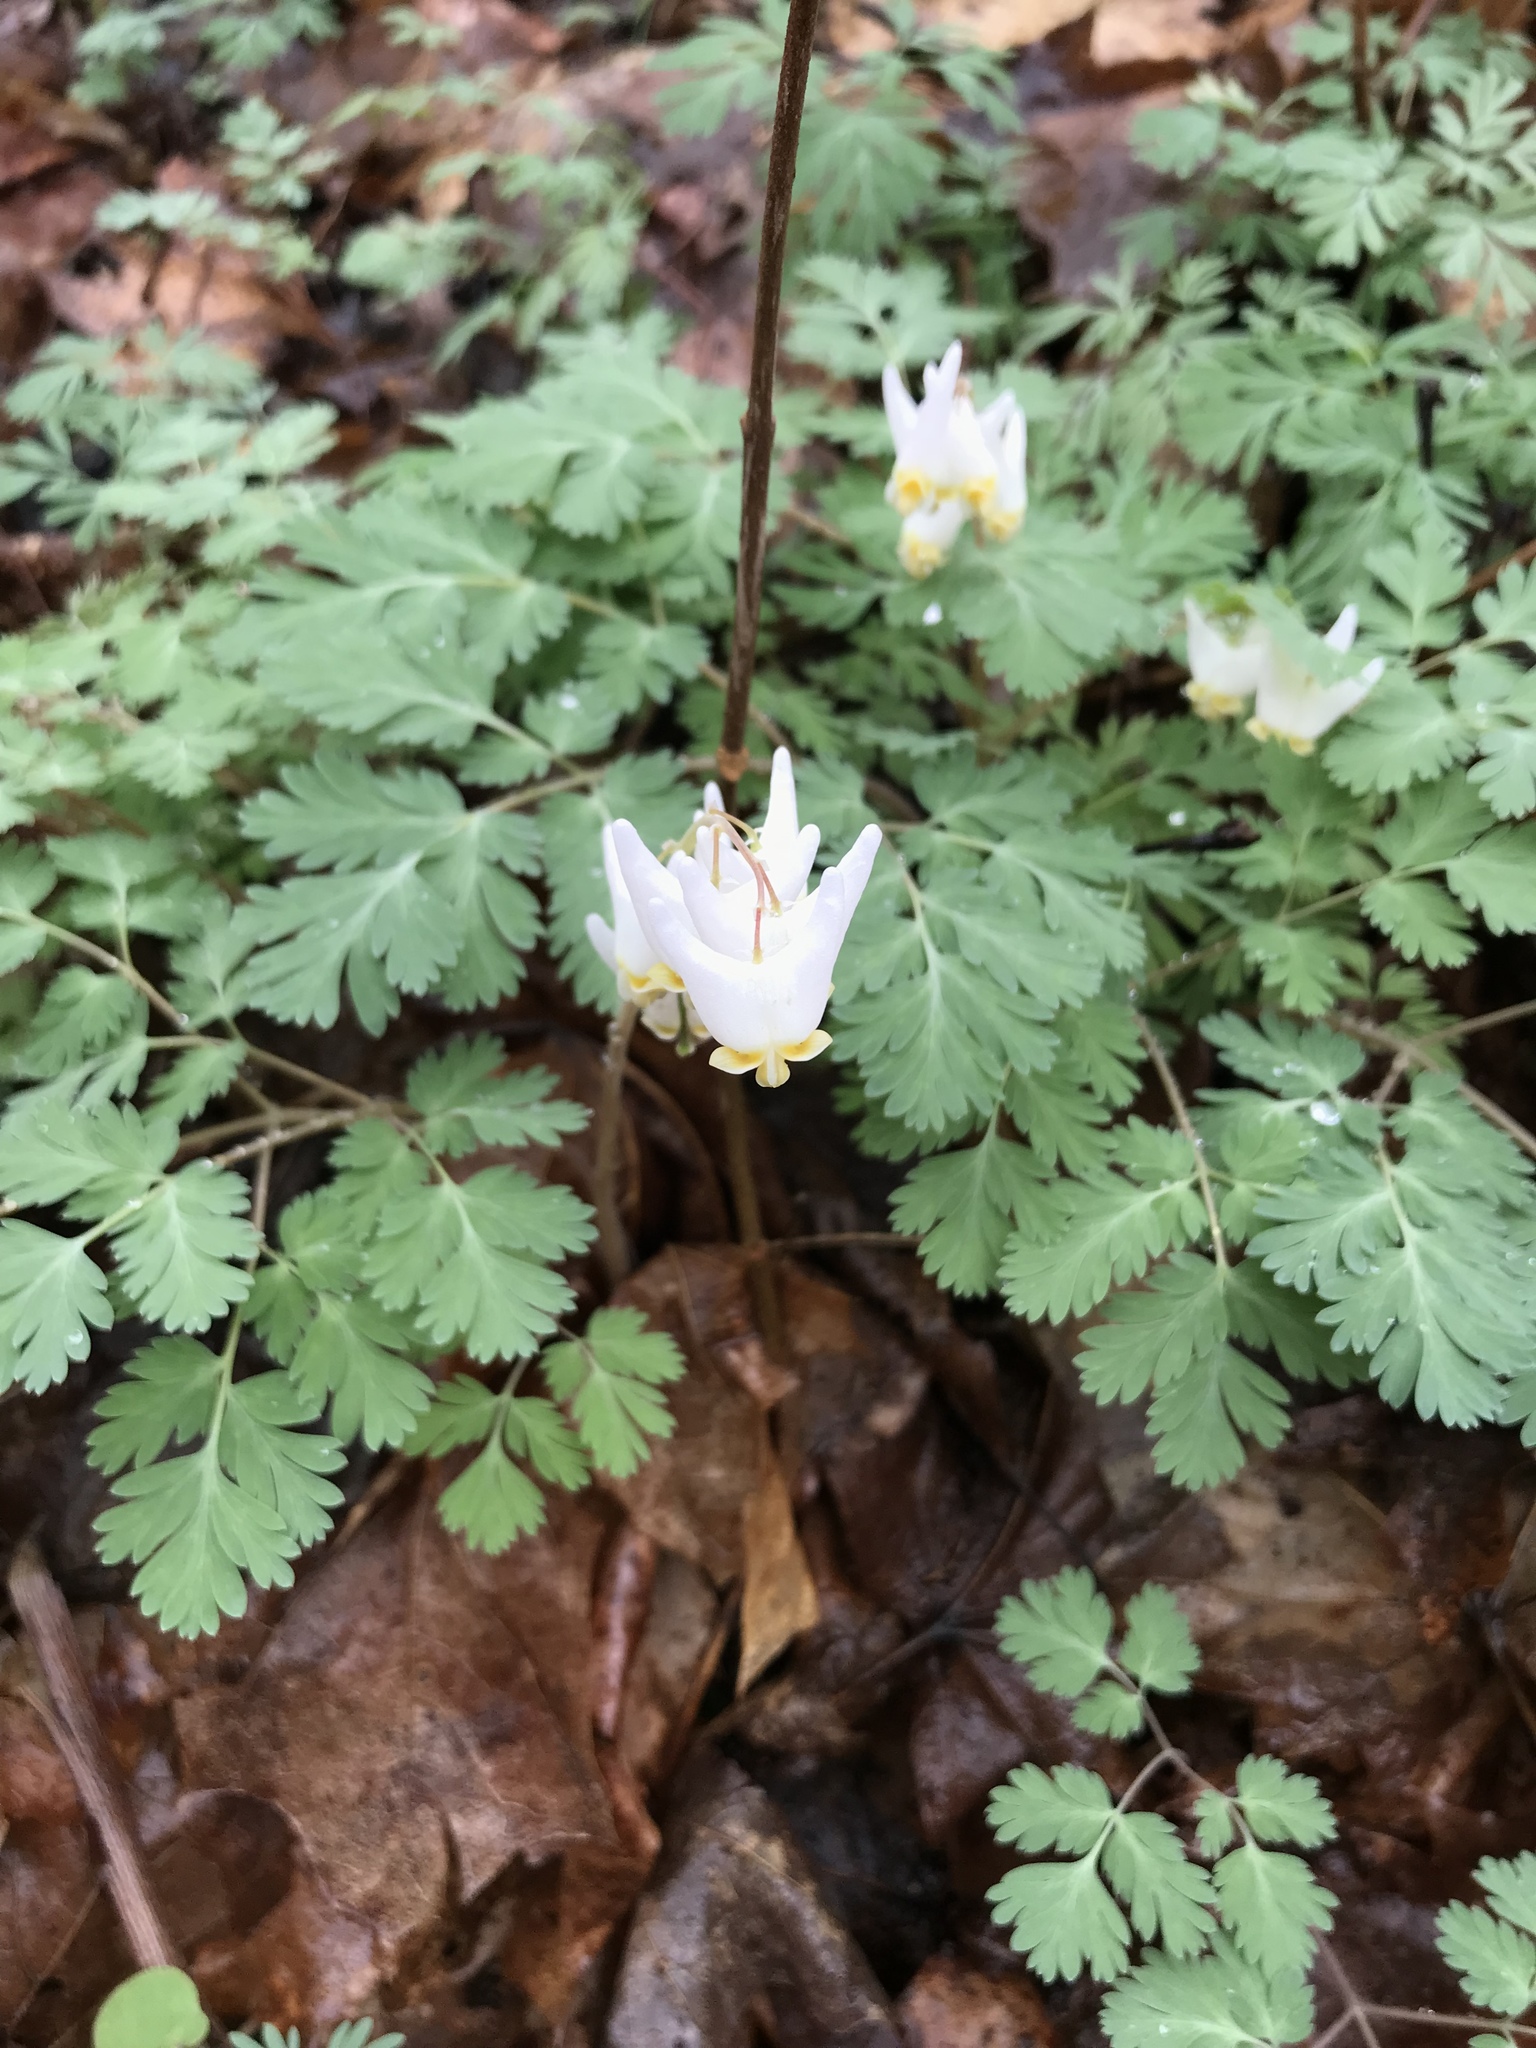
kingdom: Plantae
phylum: Tracheophyta
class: Magnoliopsida
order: Ranunculales
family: Papaveraceae
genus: Dicentra
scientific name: Dicentra cucullaria
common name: Dutchman's breeches
